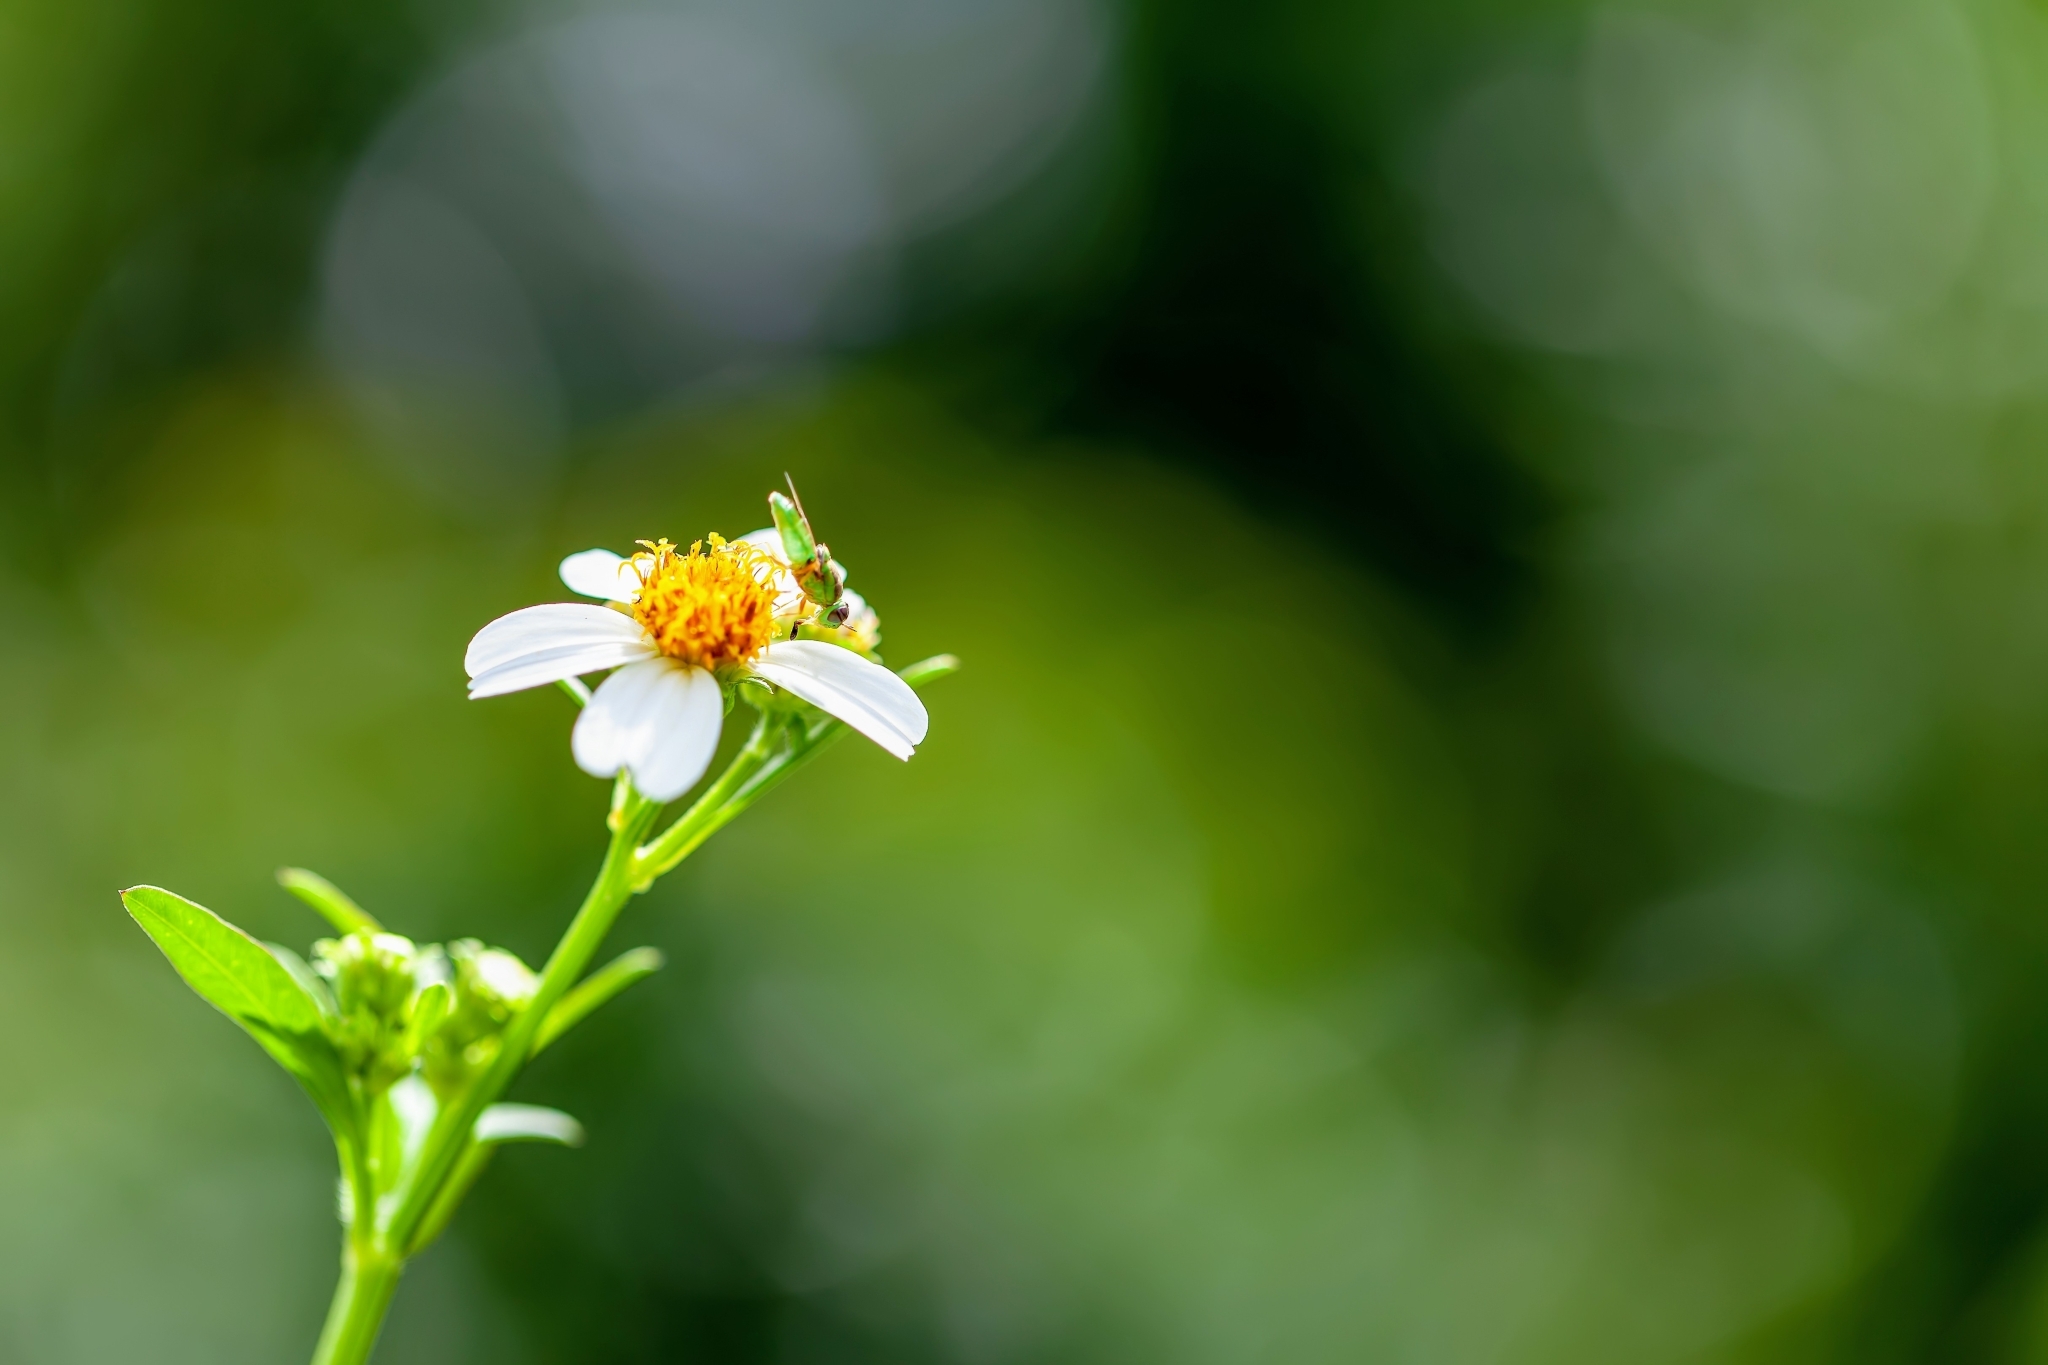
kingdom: Animalia
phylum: Arthropoda
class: Insecta
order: Diptera
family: Stratiomyidae
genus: Hedriodiscus
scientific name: Hedriodiscus trivittatus
